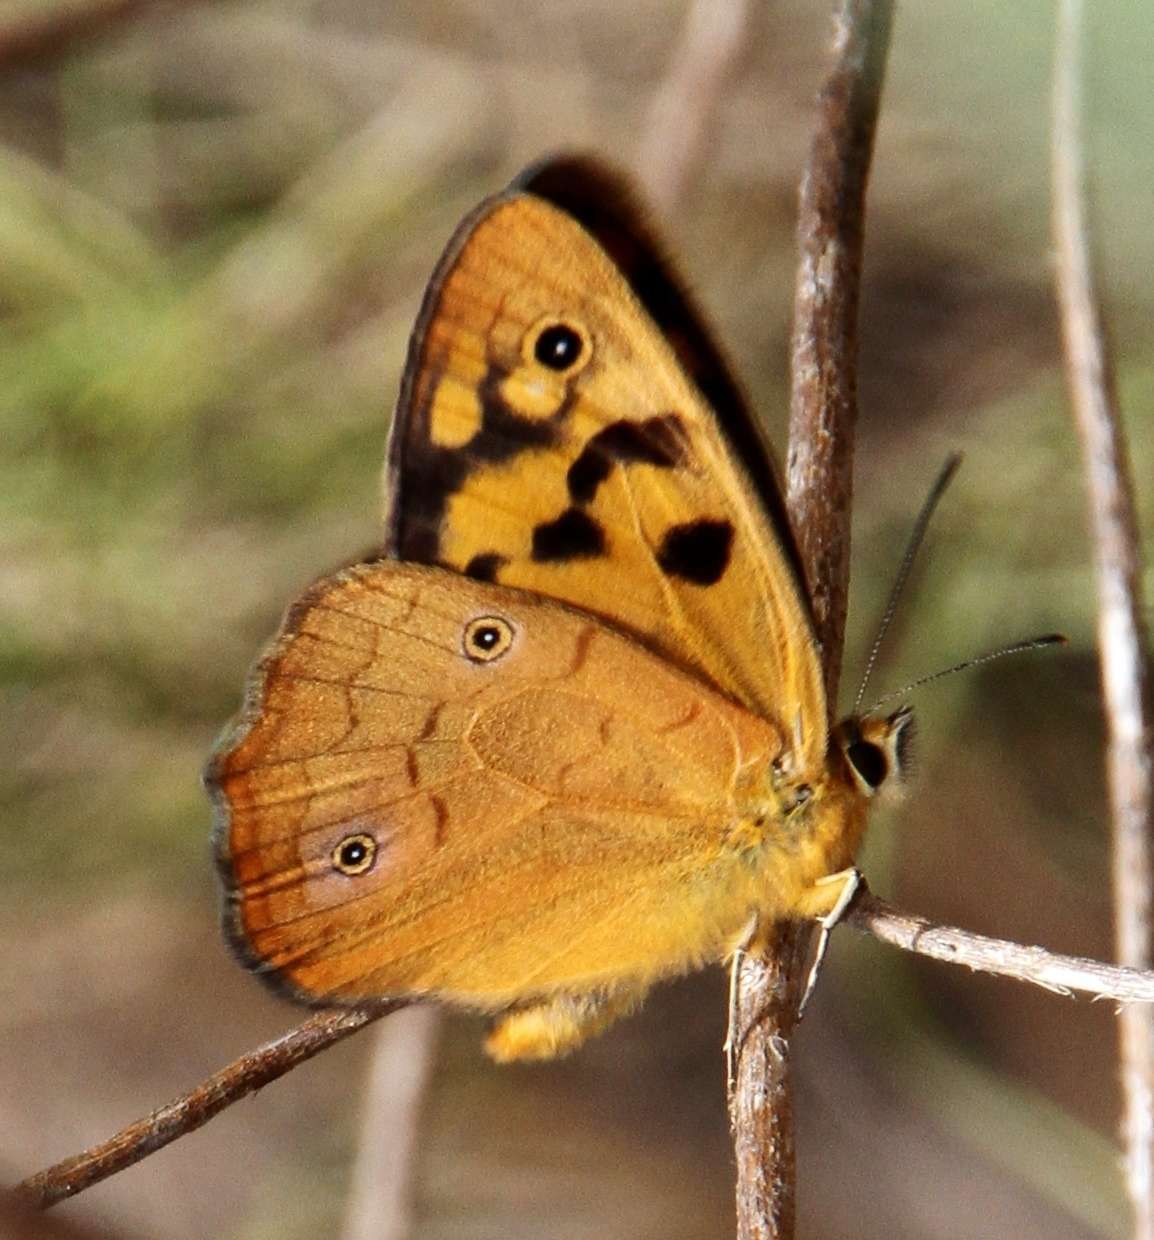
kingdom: Animalia
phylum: Arthropoda
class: Insecta
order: Lepidoptera
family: Nymphalidae
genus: Heteronympha
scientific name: Heteronympha penelope
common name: Shouldered brown
